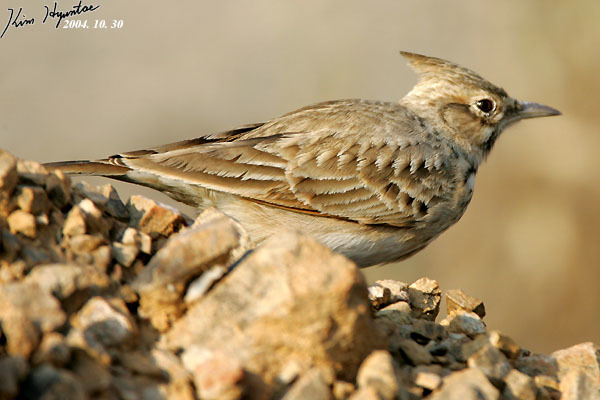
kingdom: Animalia
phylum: Chordata
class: Aves
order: Passeriformes
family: Alaudidae
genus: Galerida
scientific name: Galerida cristata
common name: Crested lark
